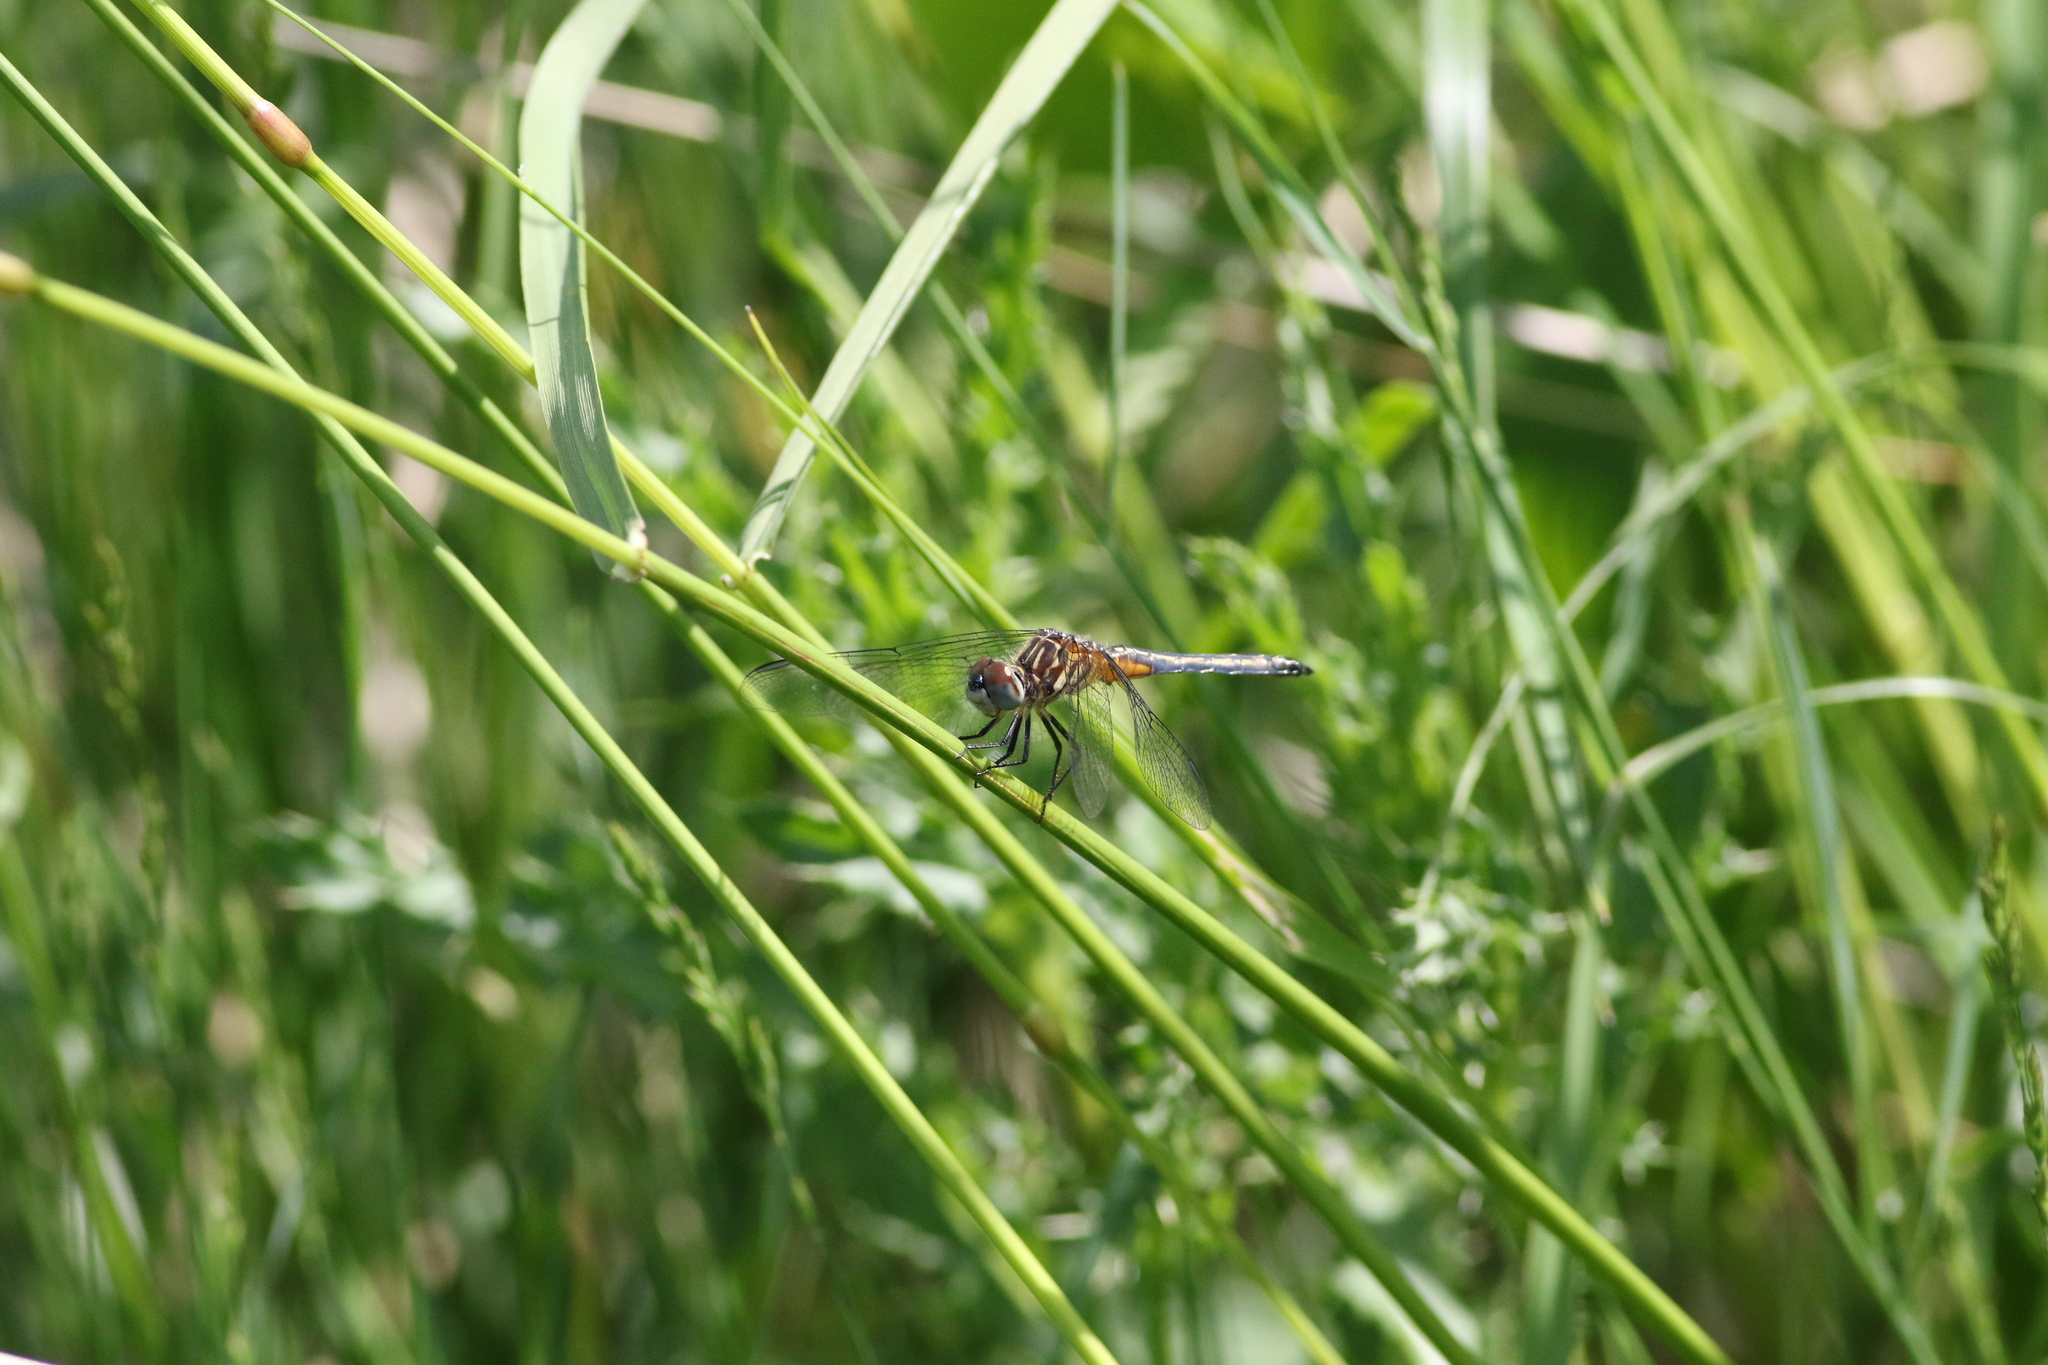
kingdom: Animalia
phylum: Arthropoda
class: Insecta
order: Odonata
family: Libellulidae
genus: Pachydiplax
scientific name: Pachydiplax longipennis
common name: Blue dasher
